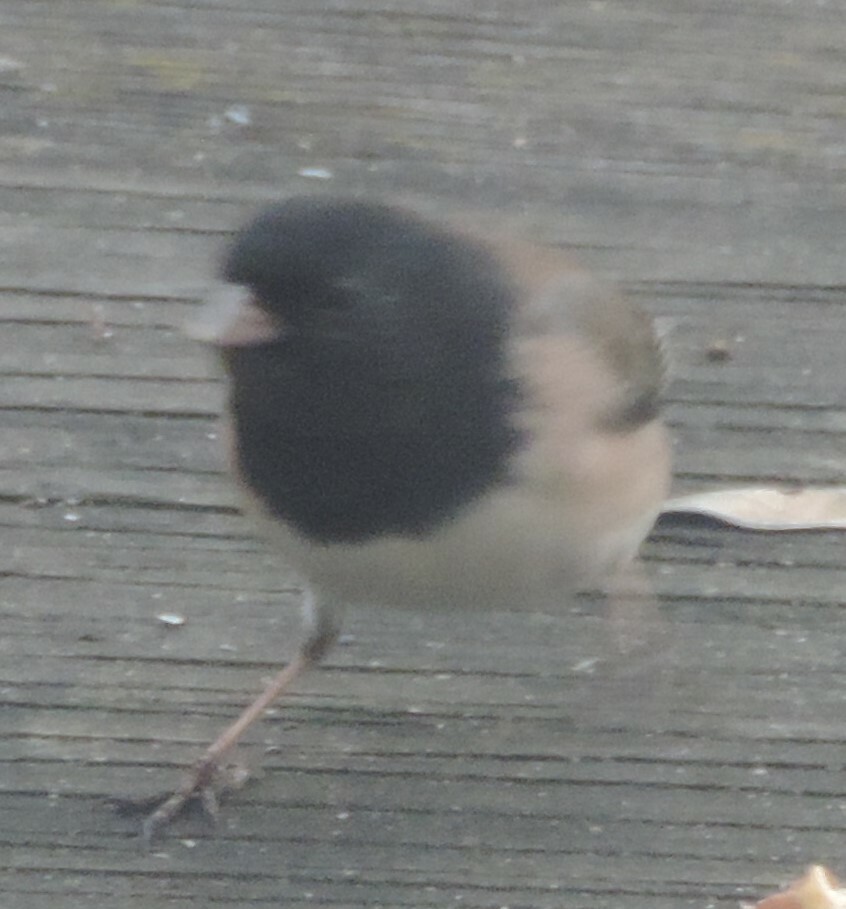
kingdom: Animalia
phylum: Chordata
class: Aves
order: Passeriformes
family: Passerellidae
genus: Junco
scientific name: Junco hyemalis
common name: Dark-eyed junco
